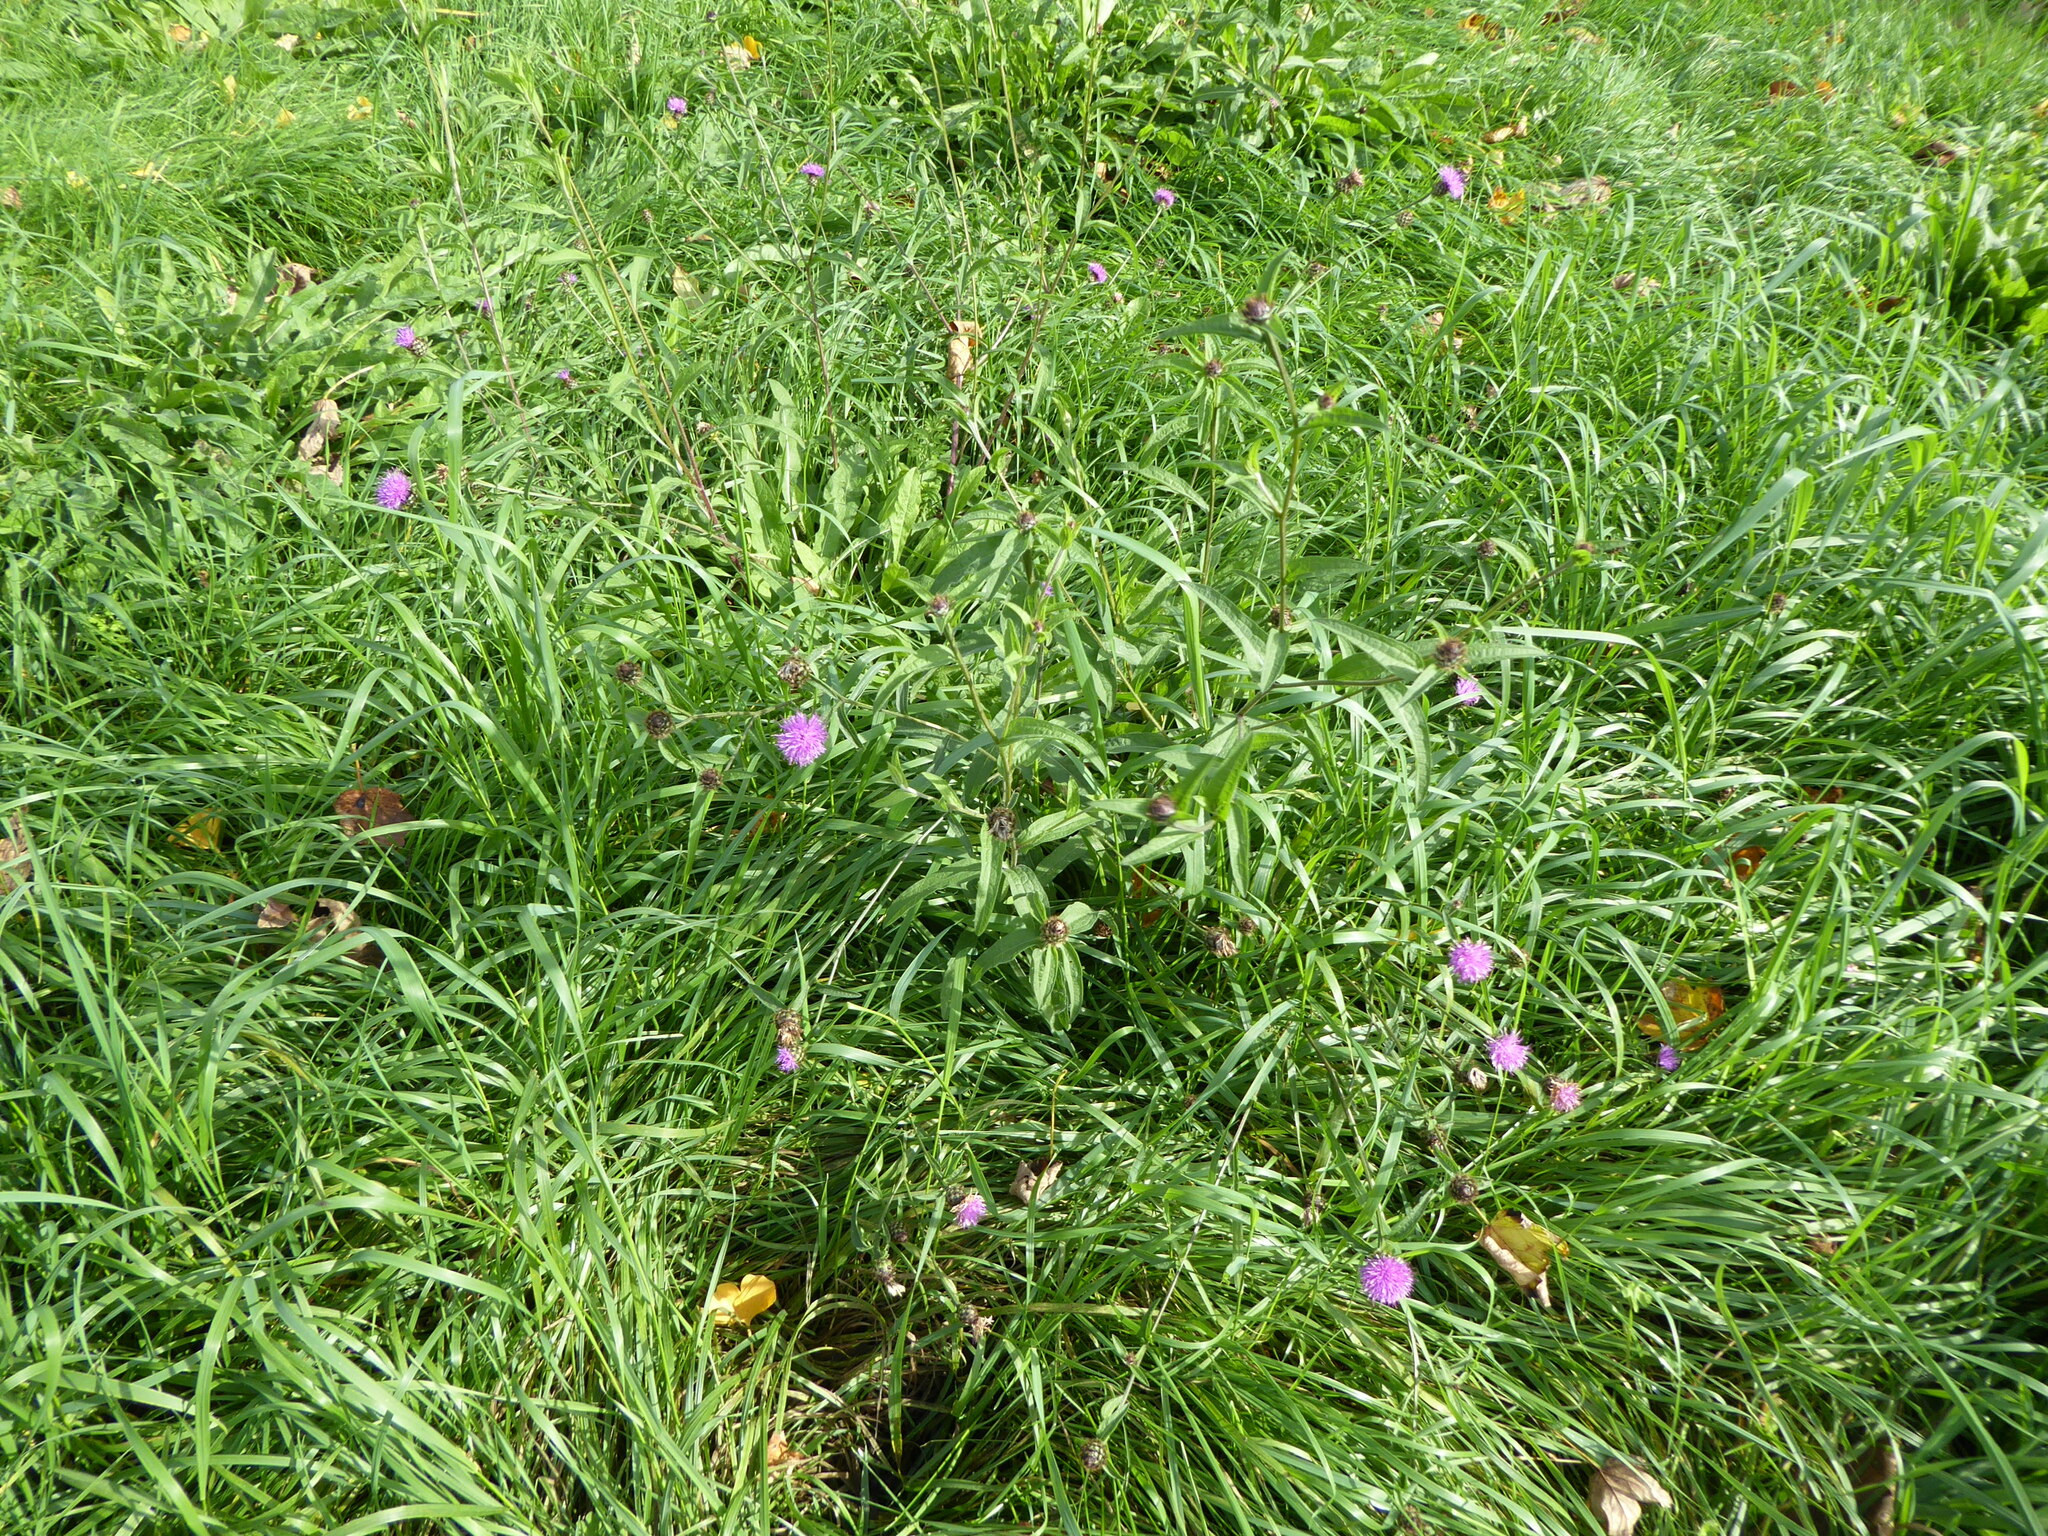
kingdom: Plantae
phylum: Tracheophyta
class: Magnoliopsida
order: Asterales
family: Asteraceae
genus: Centaurea
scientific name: Centaurea nigra
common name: Lesser knapweed
